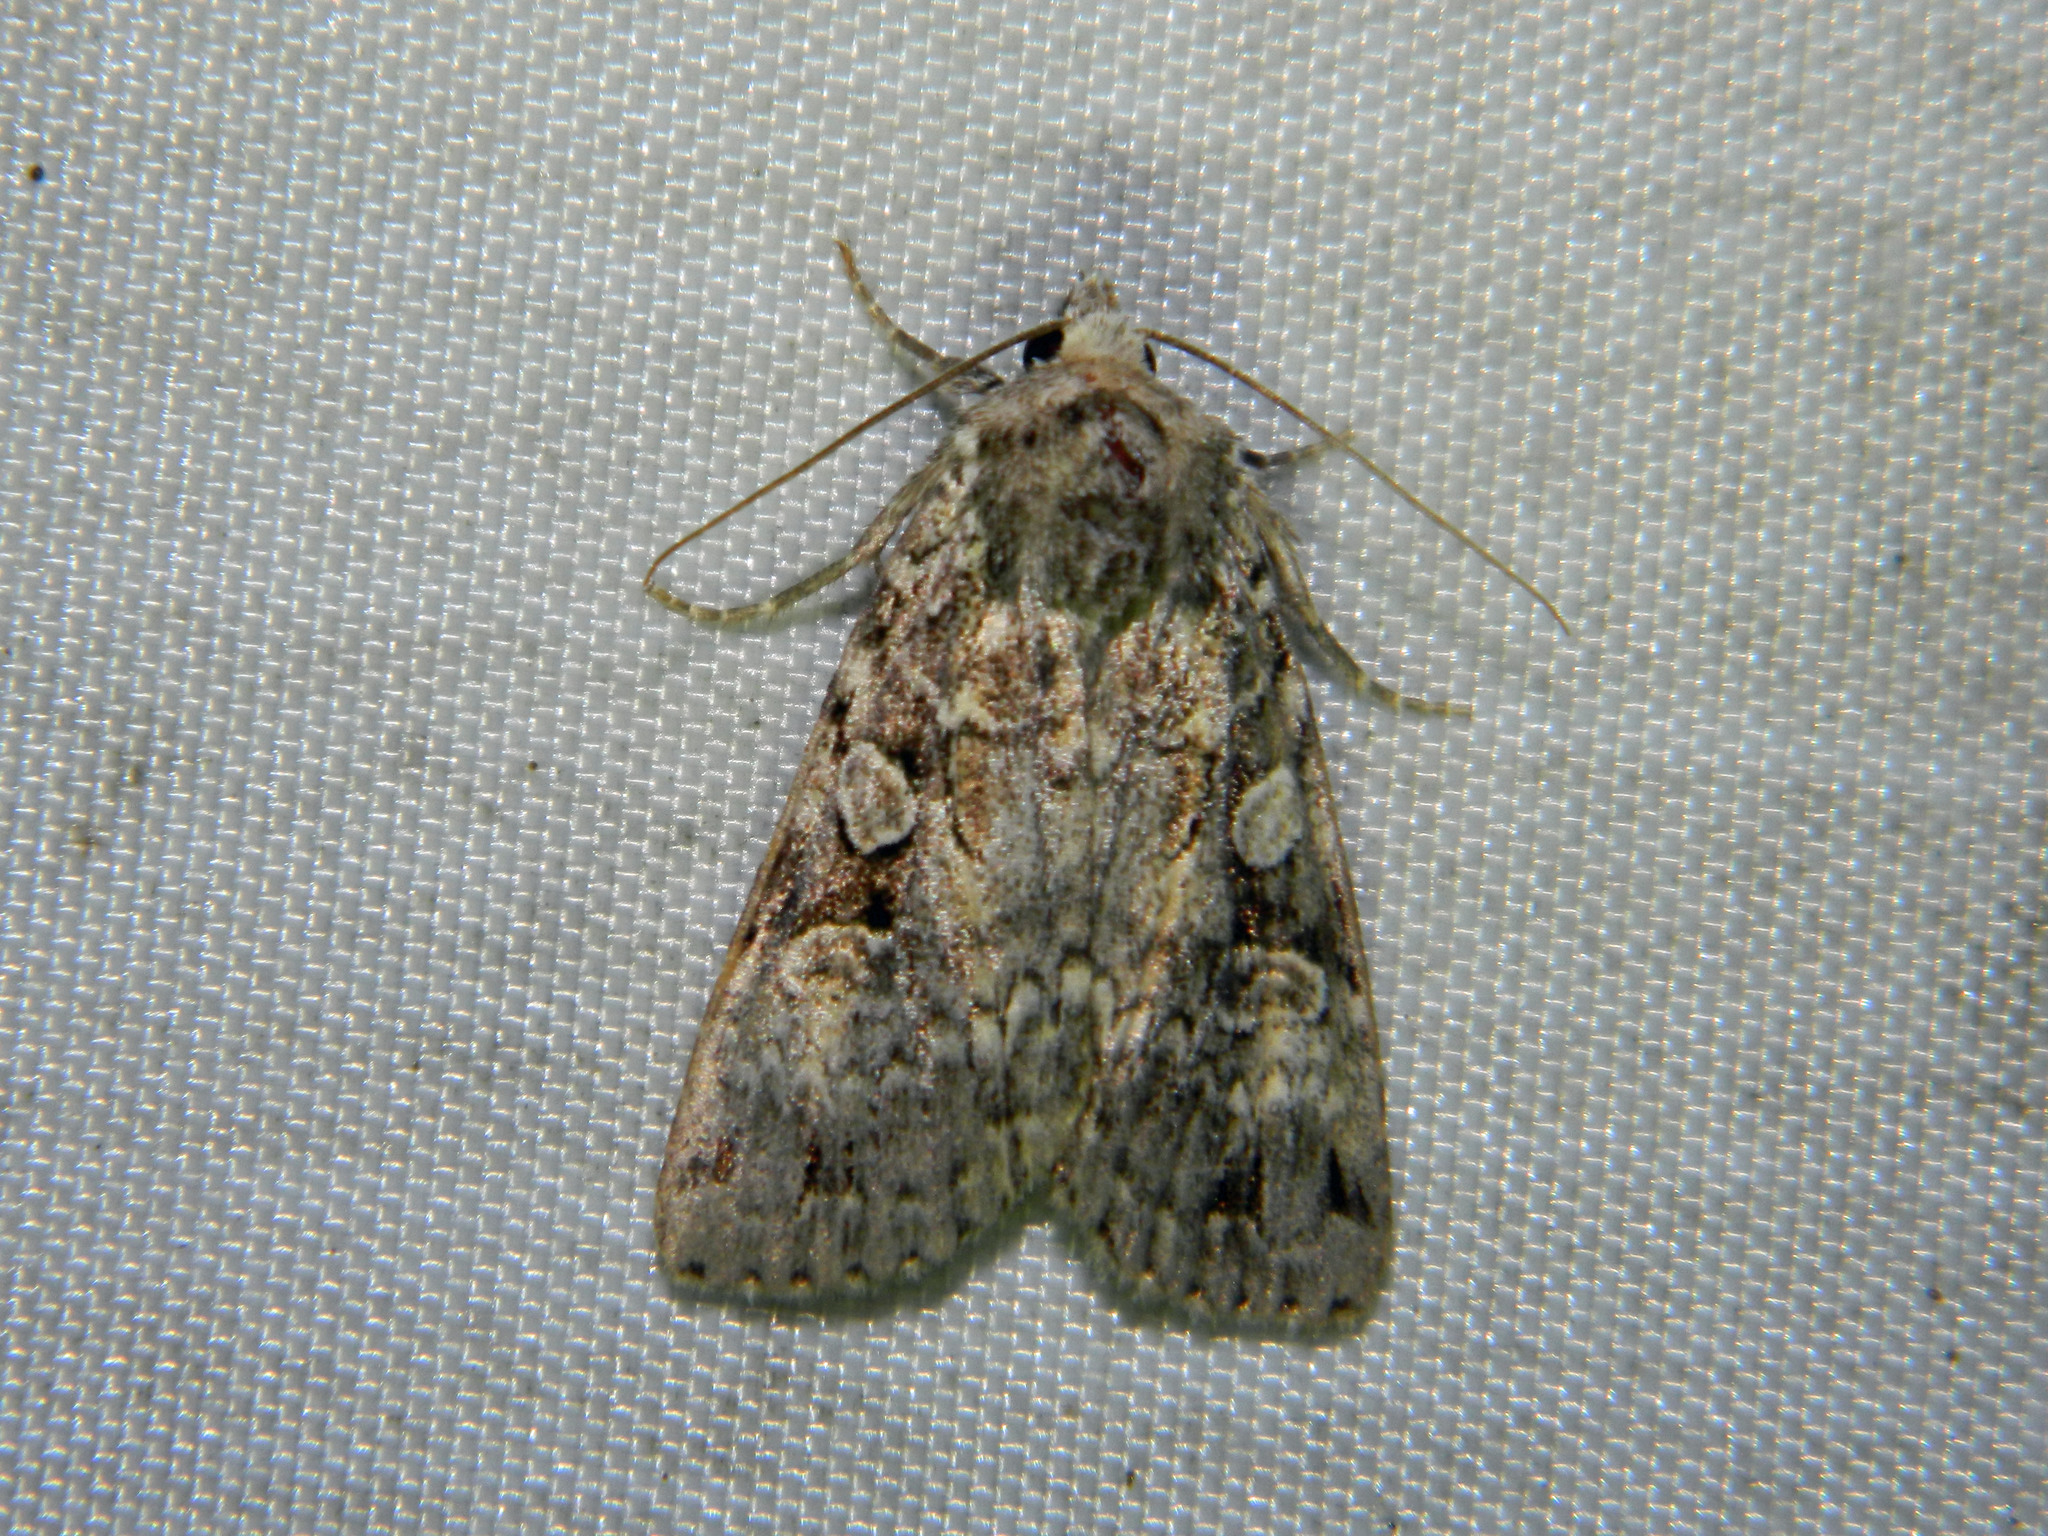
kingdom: Animalia
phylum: Arthropoda
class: Insecta
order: Lepidoptera
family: Noctuidae
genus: Anaplectoides
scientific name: Anaplectoides pressus
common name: Dappled dart
